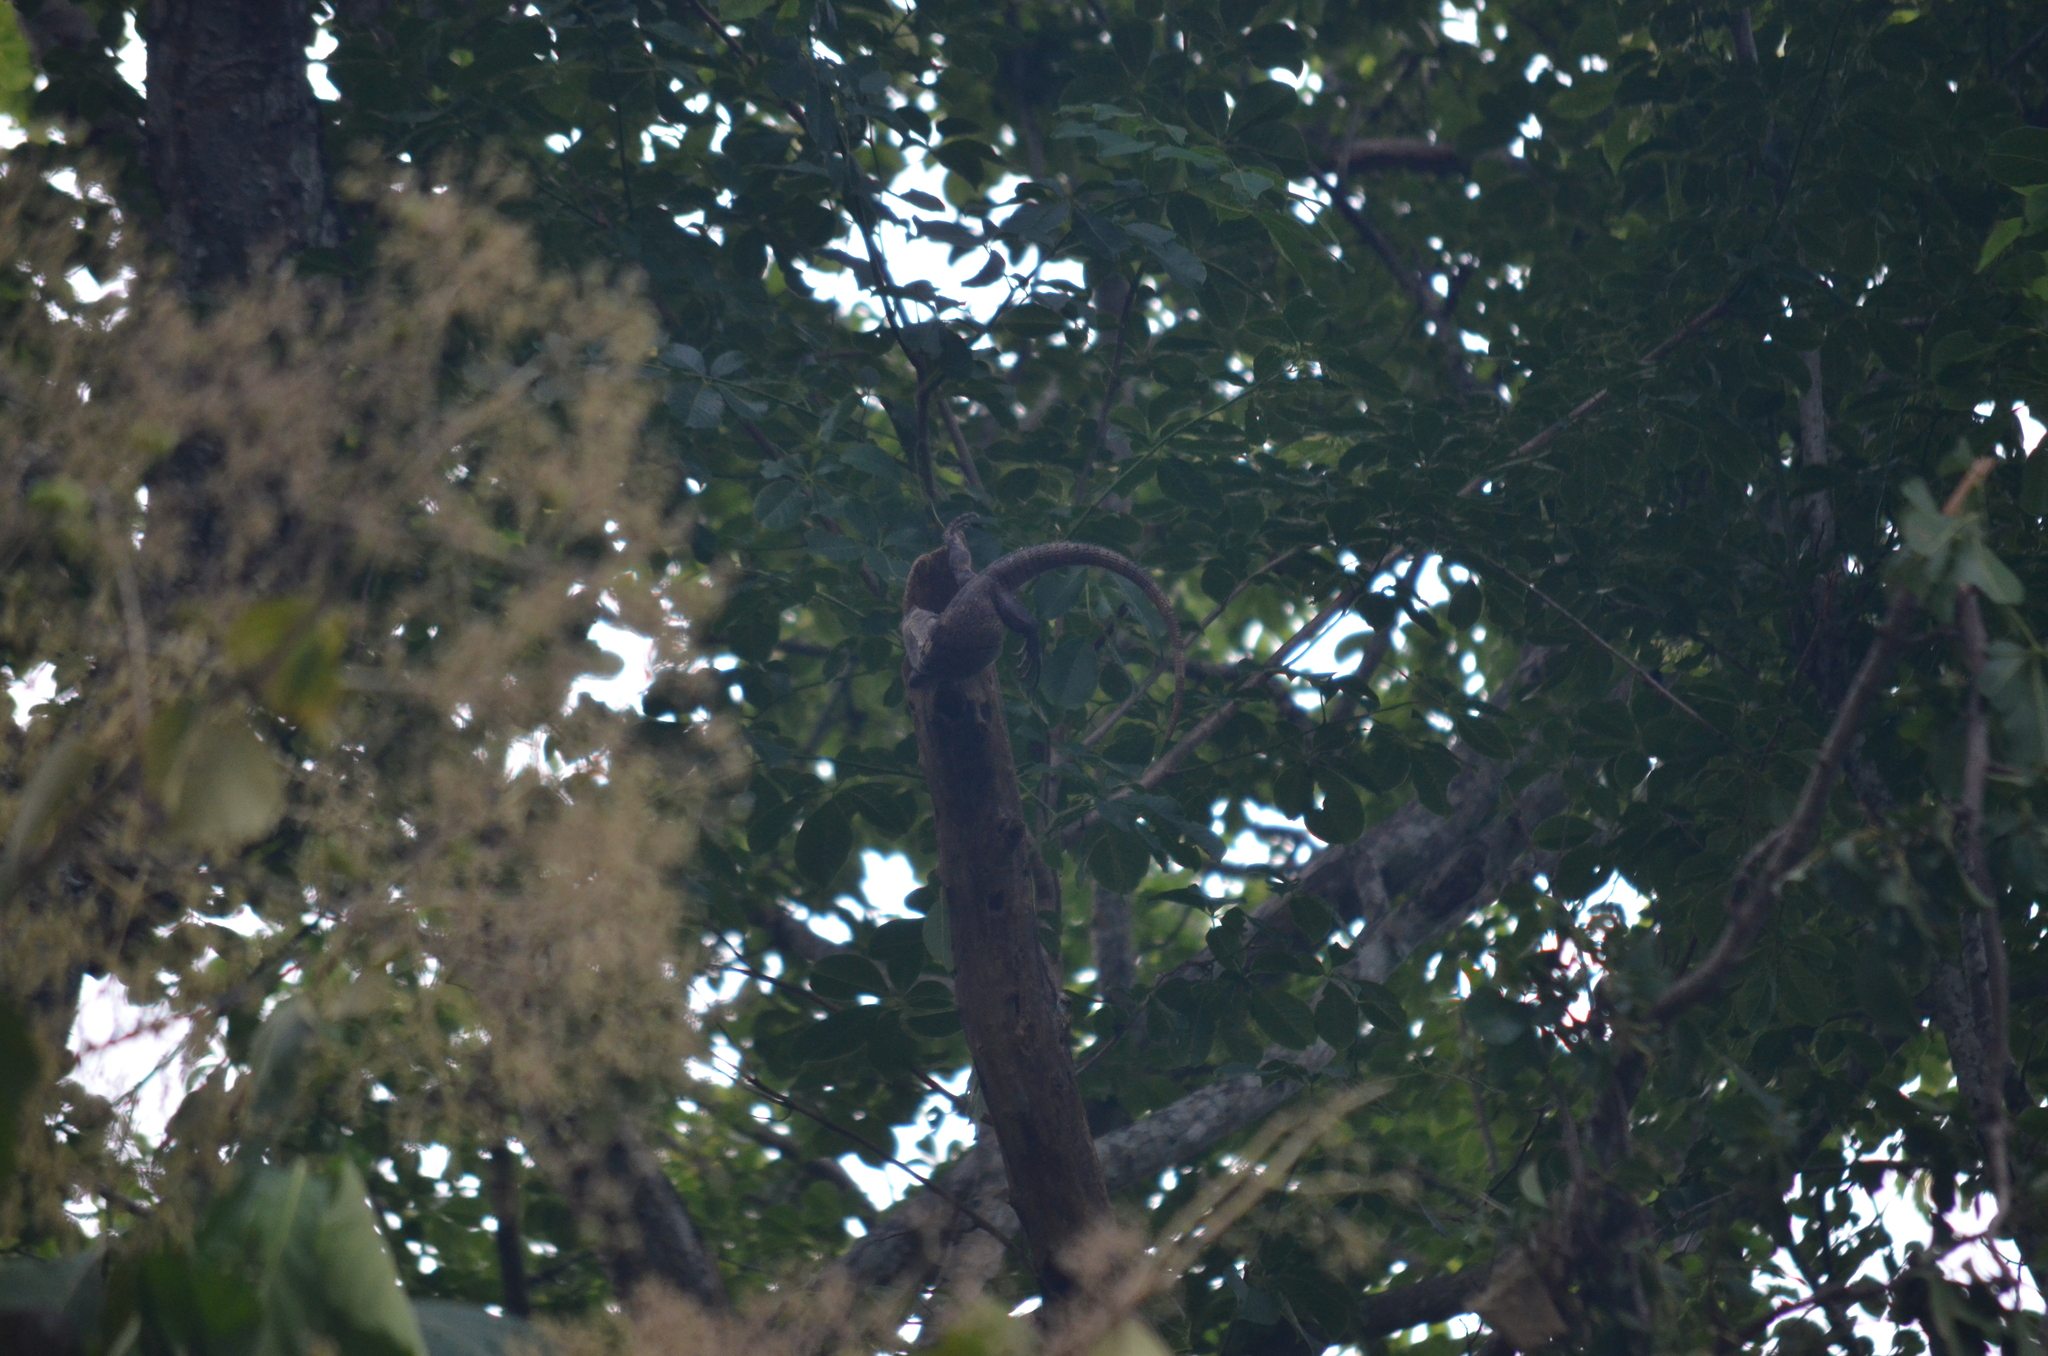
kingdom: Animalia
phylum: Chordata
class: Squamata
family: Iguanidae
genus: Ctenosaura
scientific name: Ctenosaura similis
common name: Black spiny-tailed iguana
